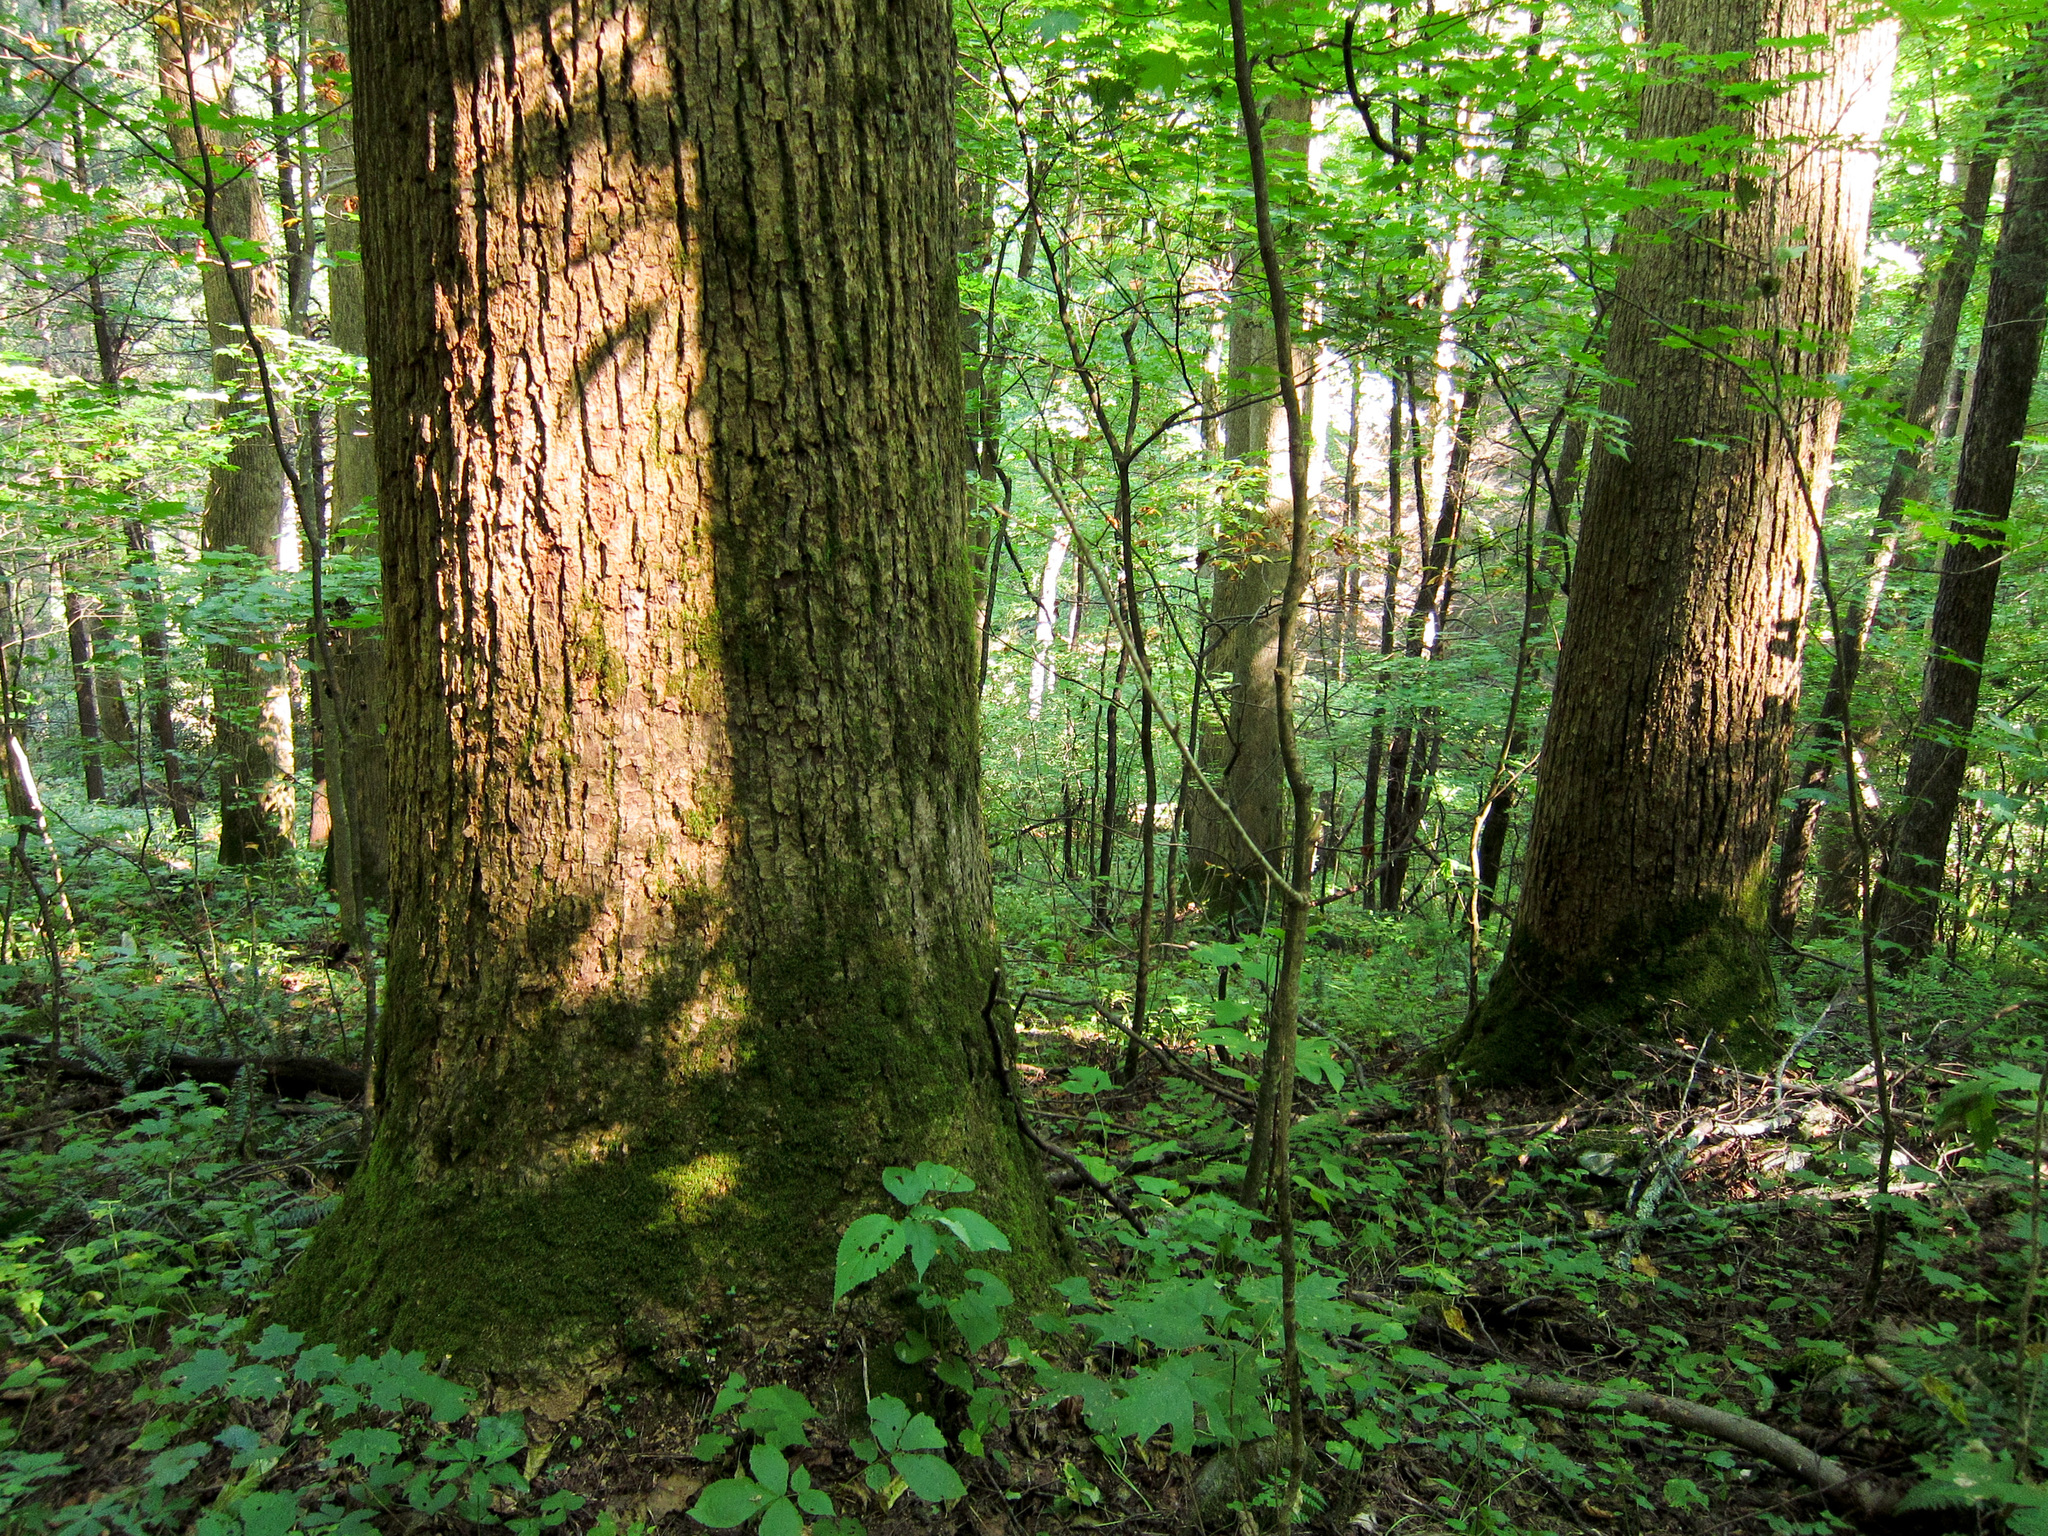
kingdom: Plantae
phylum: Tracheophyta
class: Magnoliopsida
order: Magnoliales
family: Magnoliaceae
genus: Liriodendron
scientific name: Liriodendron tulipifera
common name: Tulip tree
